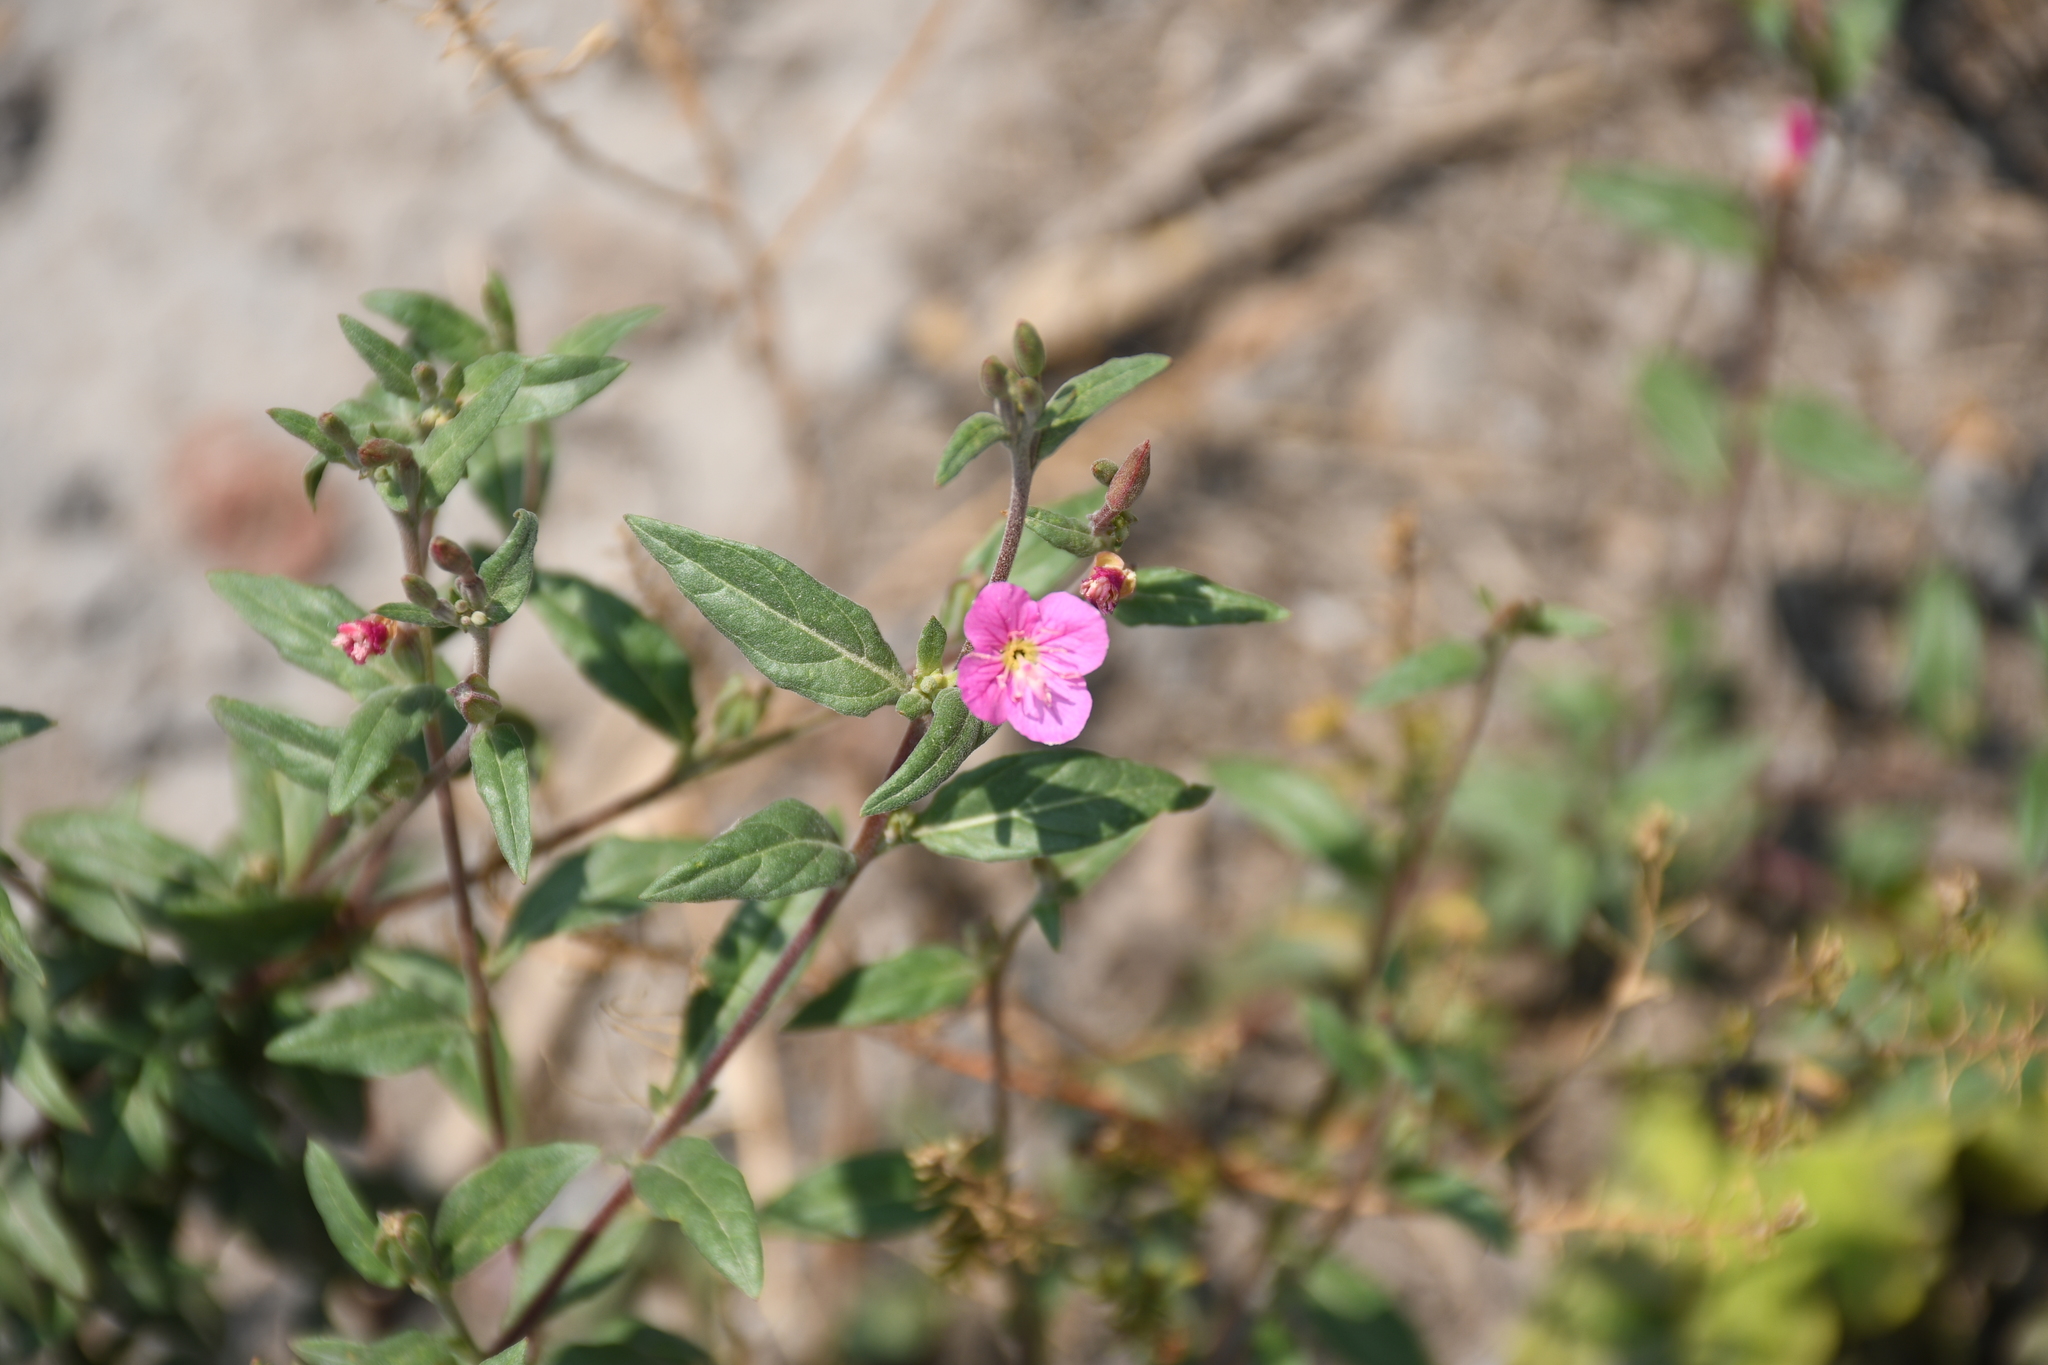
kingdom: Plantae
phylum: Tracheophyta
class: Magnoliopsida
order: Myrtales
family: Onagraceae
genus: Oenothera
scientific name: Oenothera rosea
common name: Rosy evening-primrose
